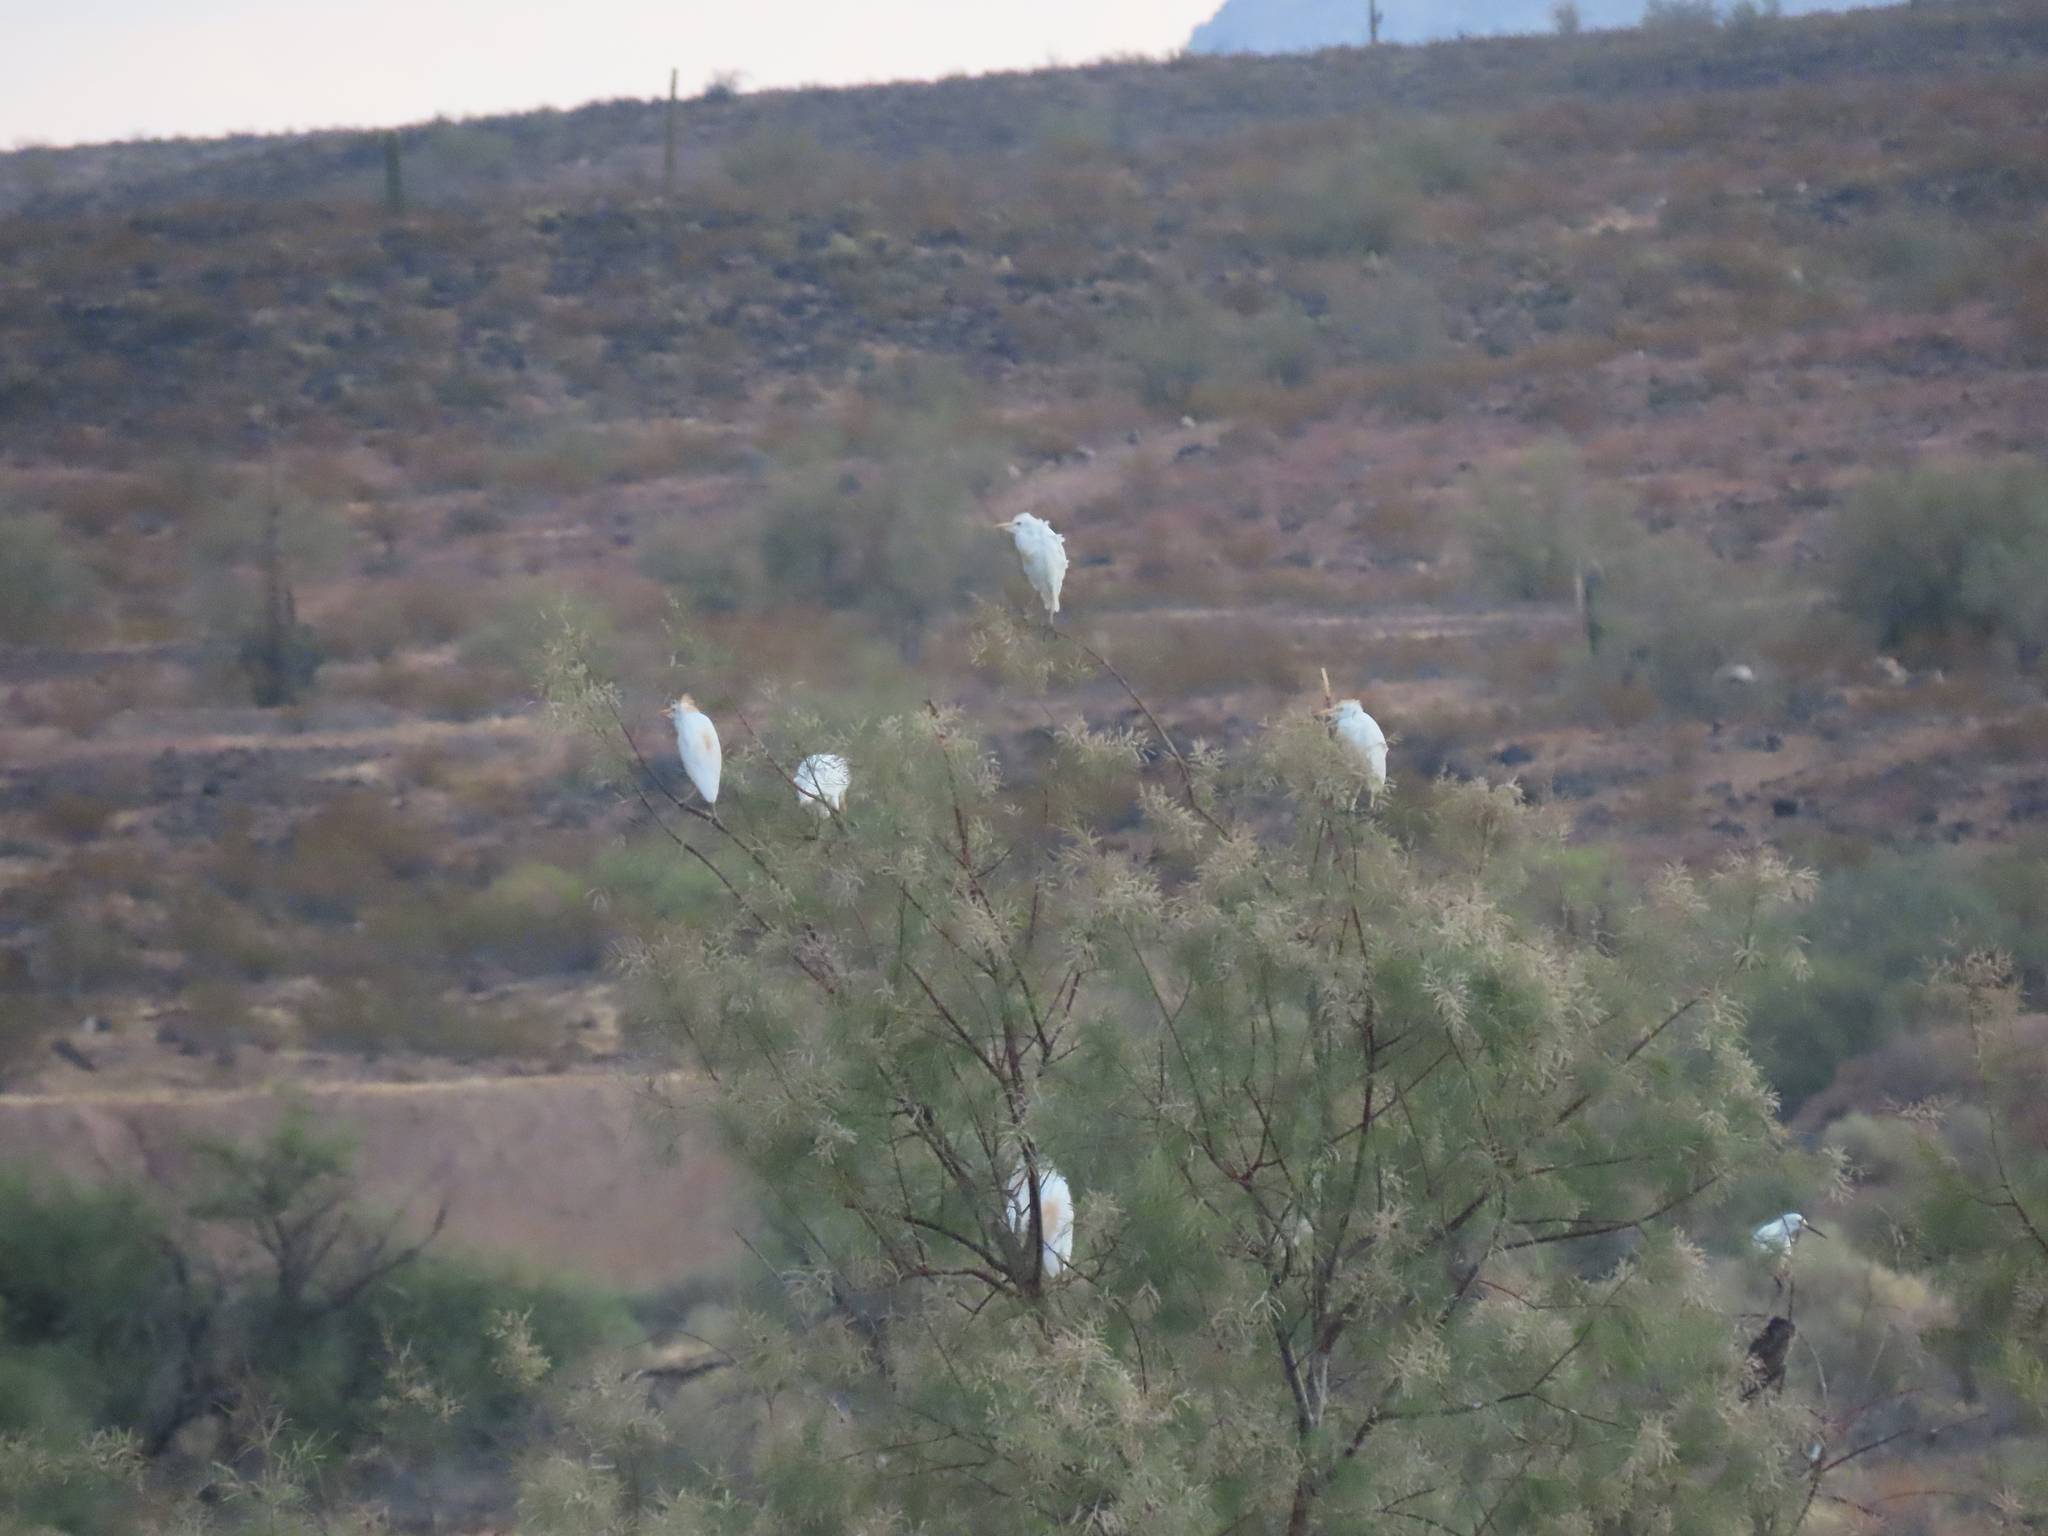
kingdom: Animalia
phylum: Chordata
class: Aves
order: Pelecaniformes
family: Ardeidae
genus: Bubulcus
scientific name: Bubulcus ibis
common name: Cattle egret
